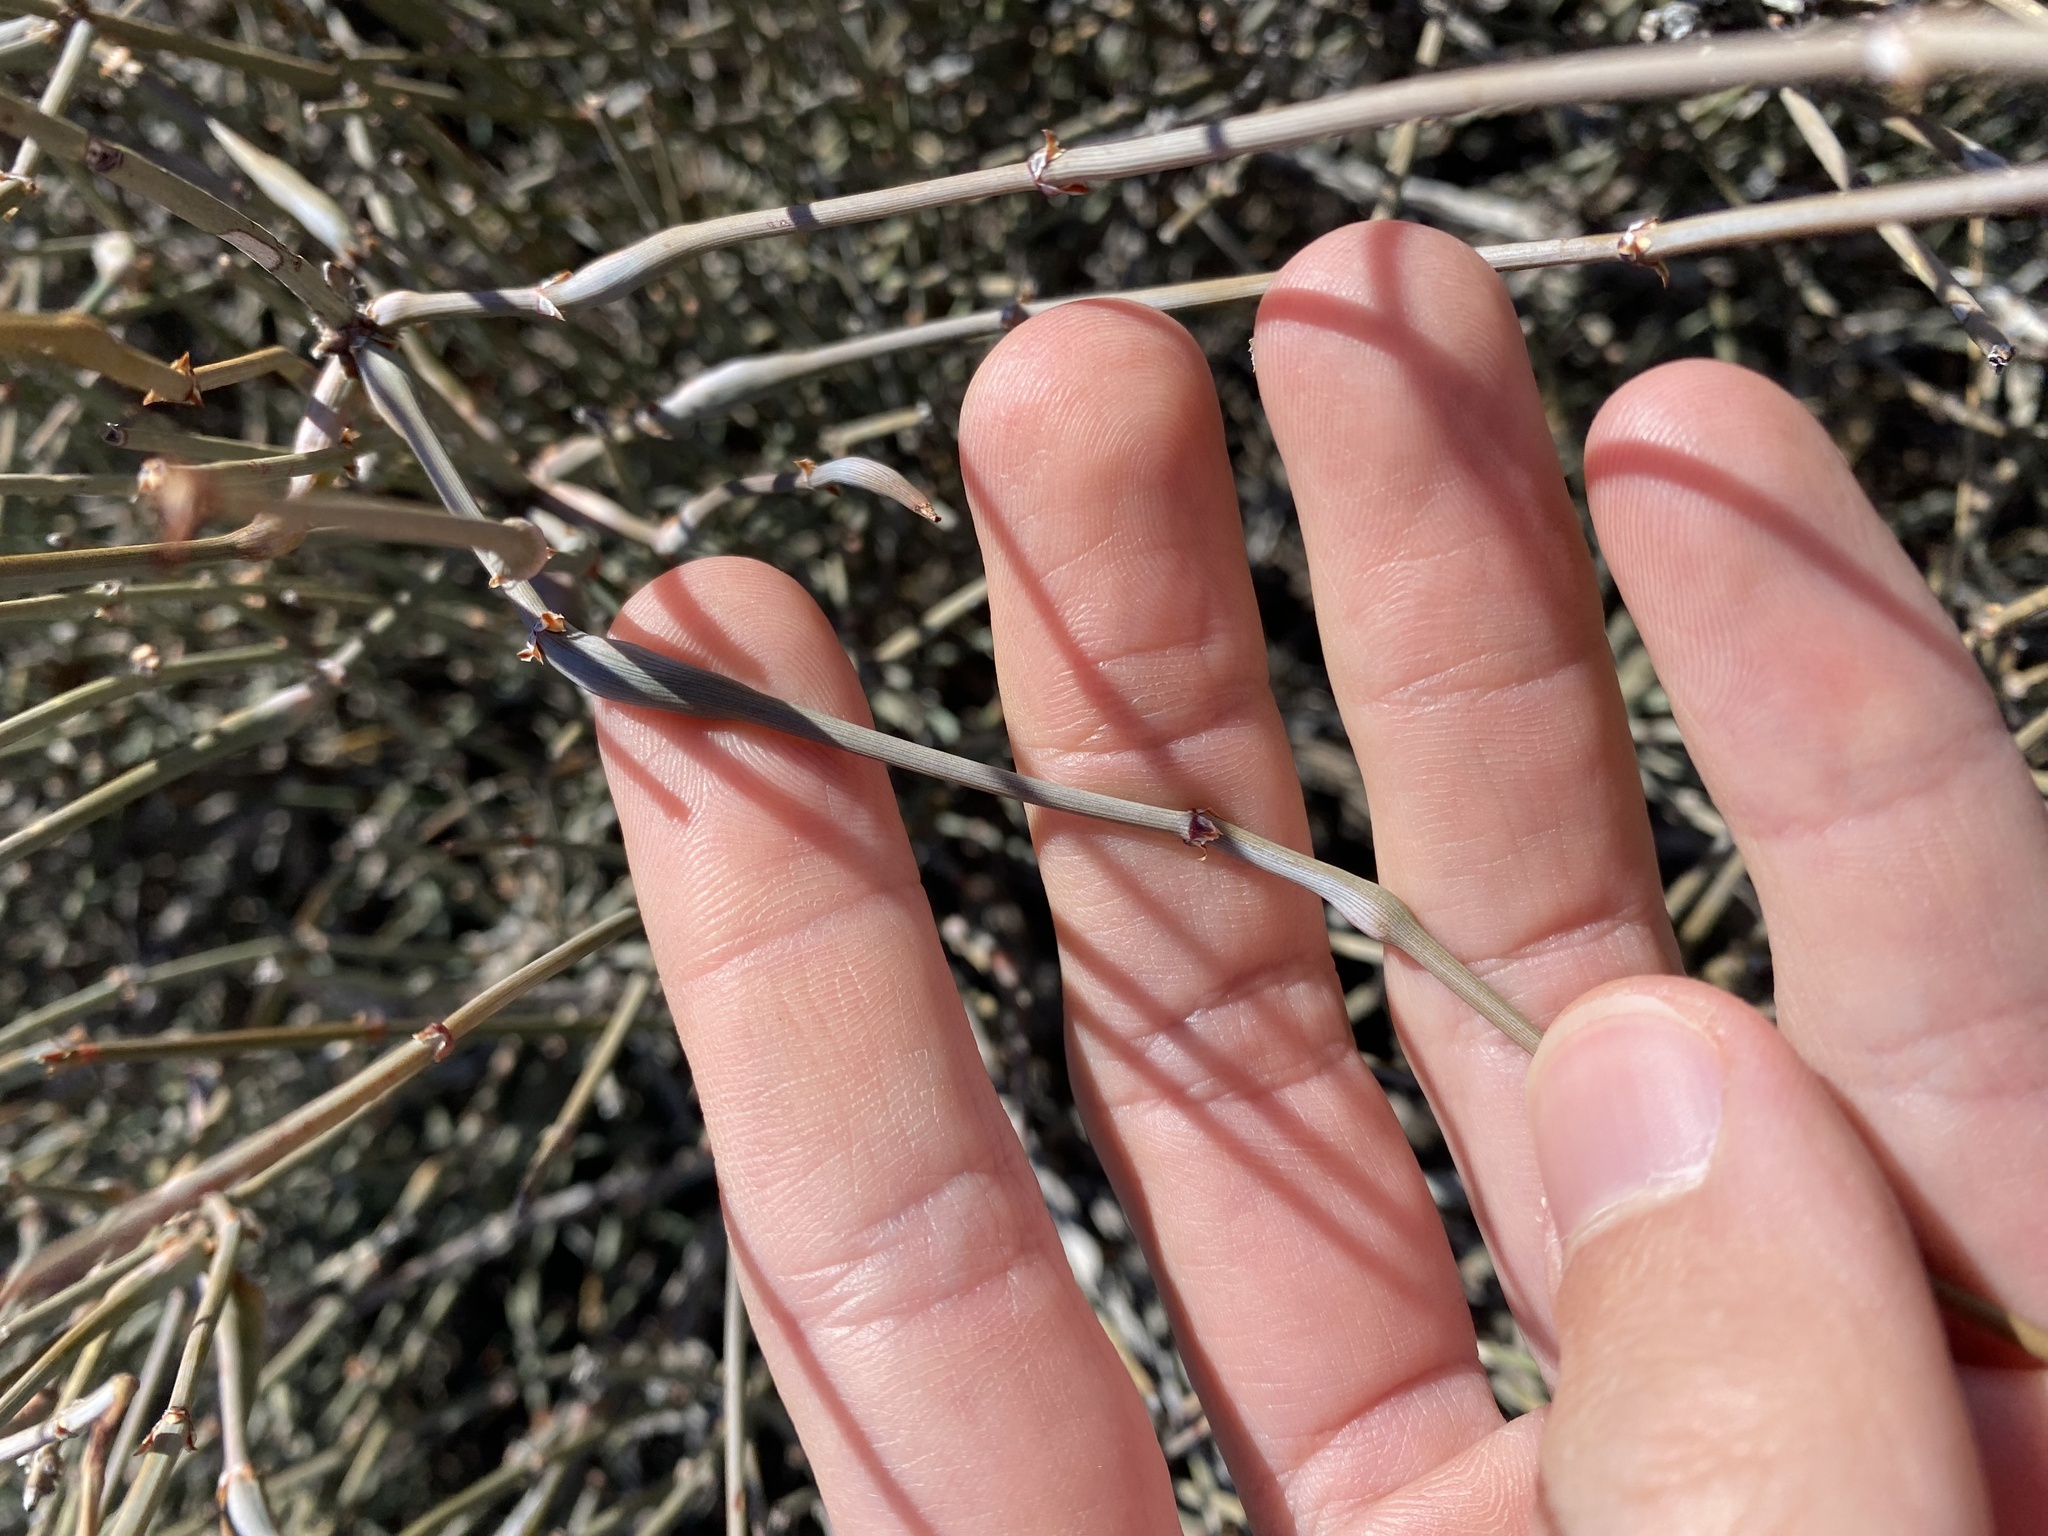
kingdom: Plantae
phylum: Tracheophyta
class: Gnetopsida
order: Ephedrales
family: Ephedraceae
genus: Ephedra
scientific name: Ephedra torreyana
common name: Torrey ephedra
